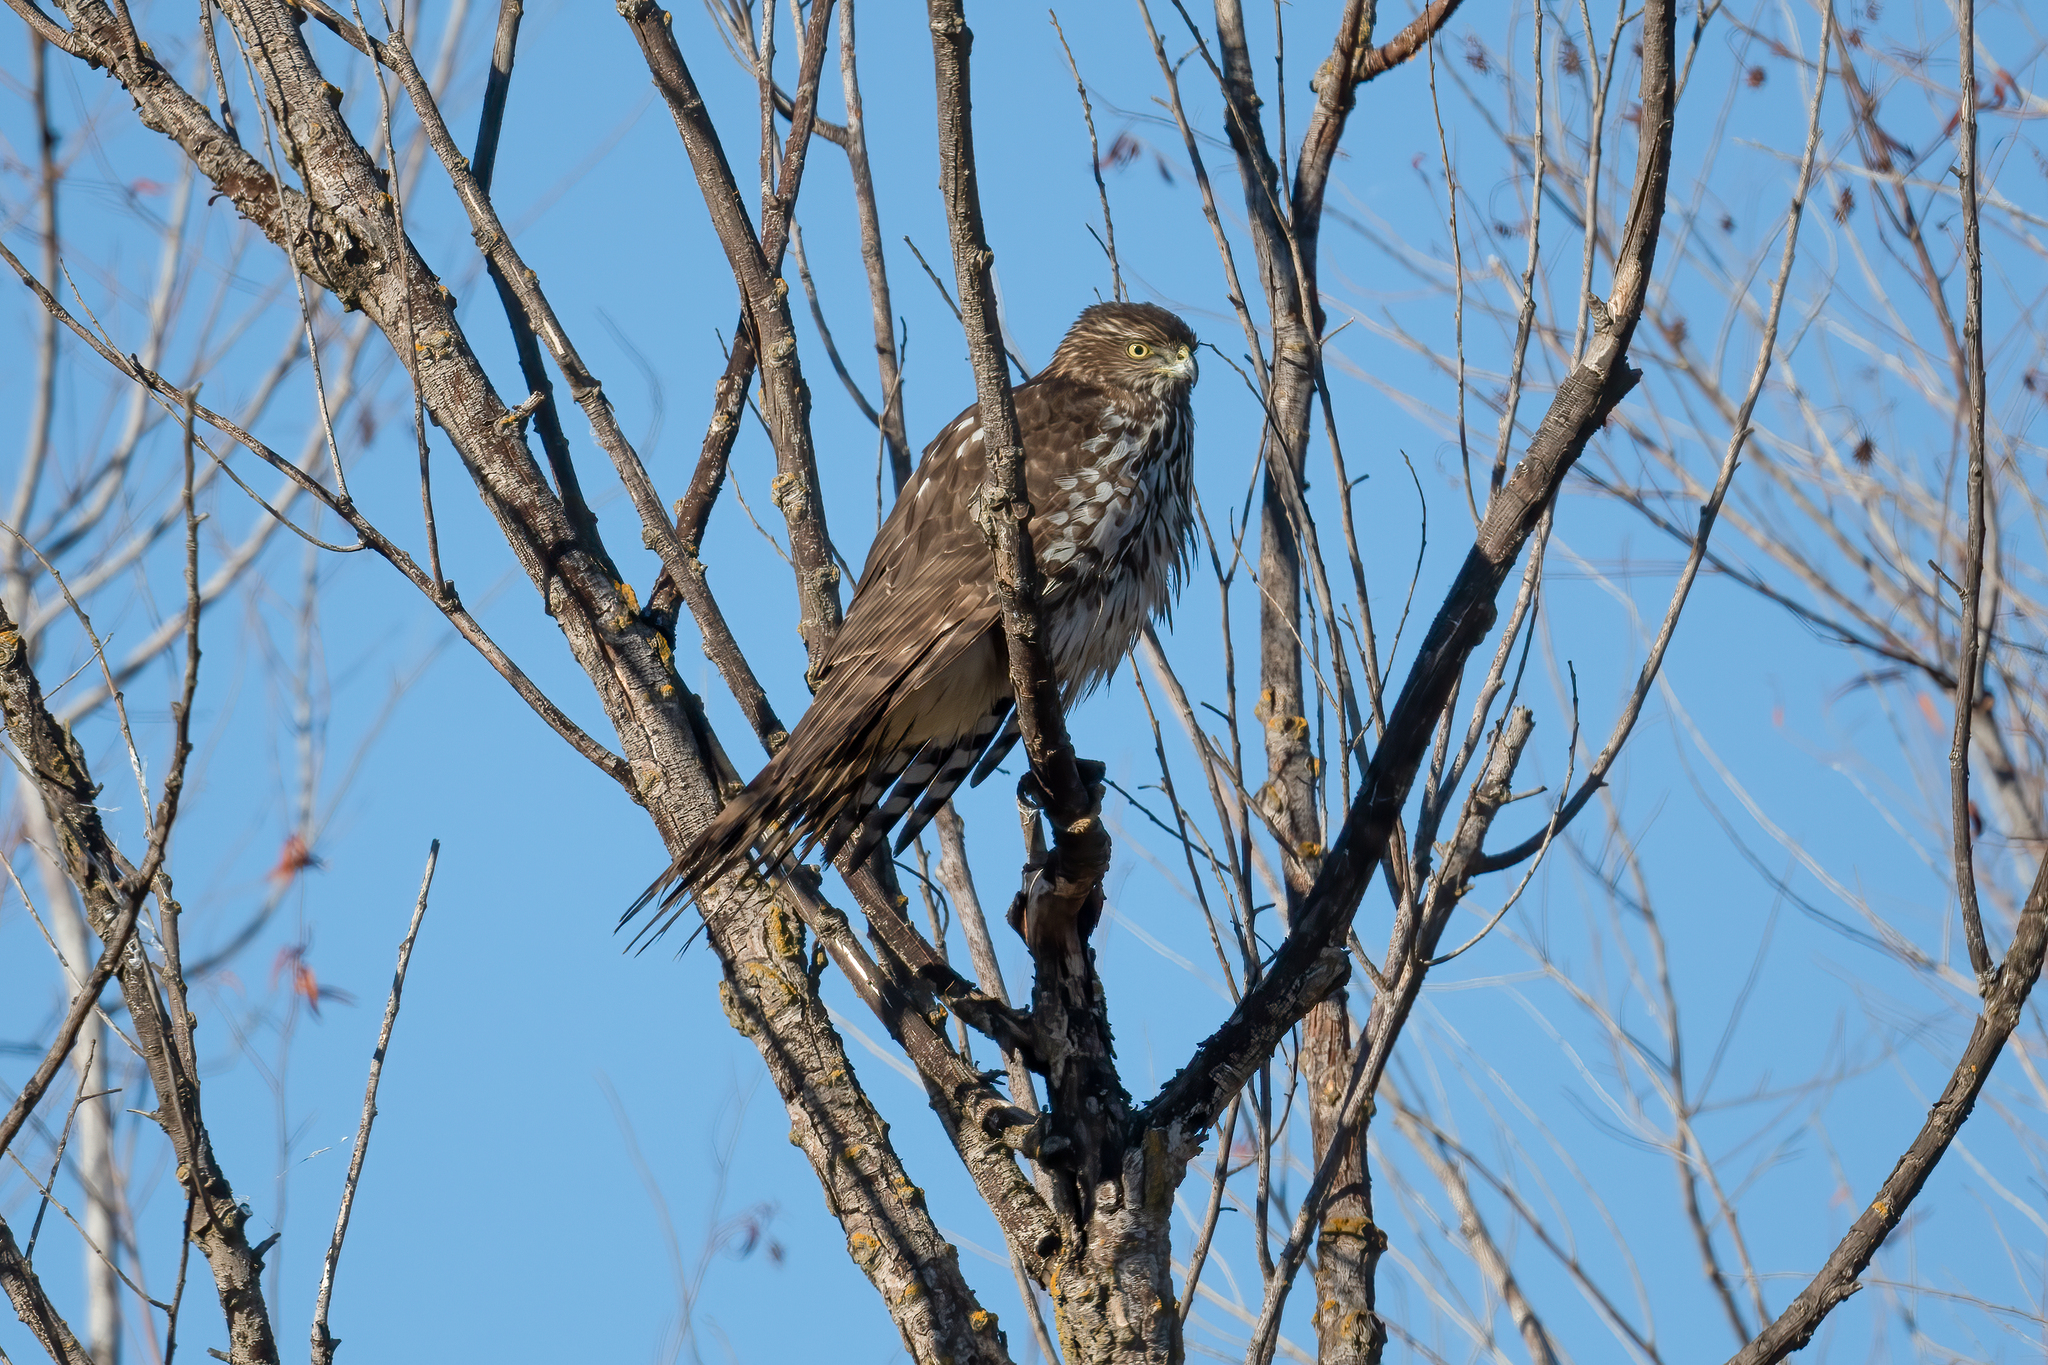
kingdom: Animalia
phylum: Chordata
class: Aves
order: Accipitriformes
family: Accipitridae
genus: Accipiter
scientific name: Accipiter cooperii
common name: Cooper's hawk
